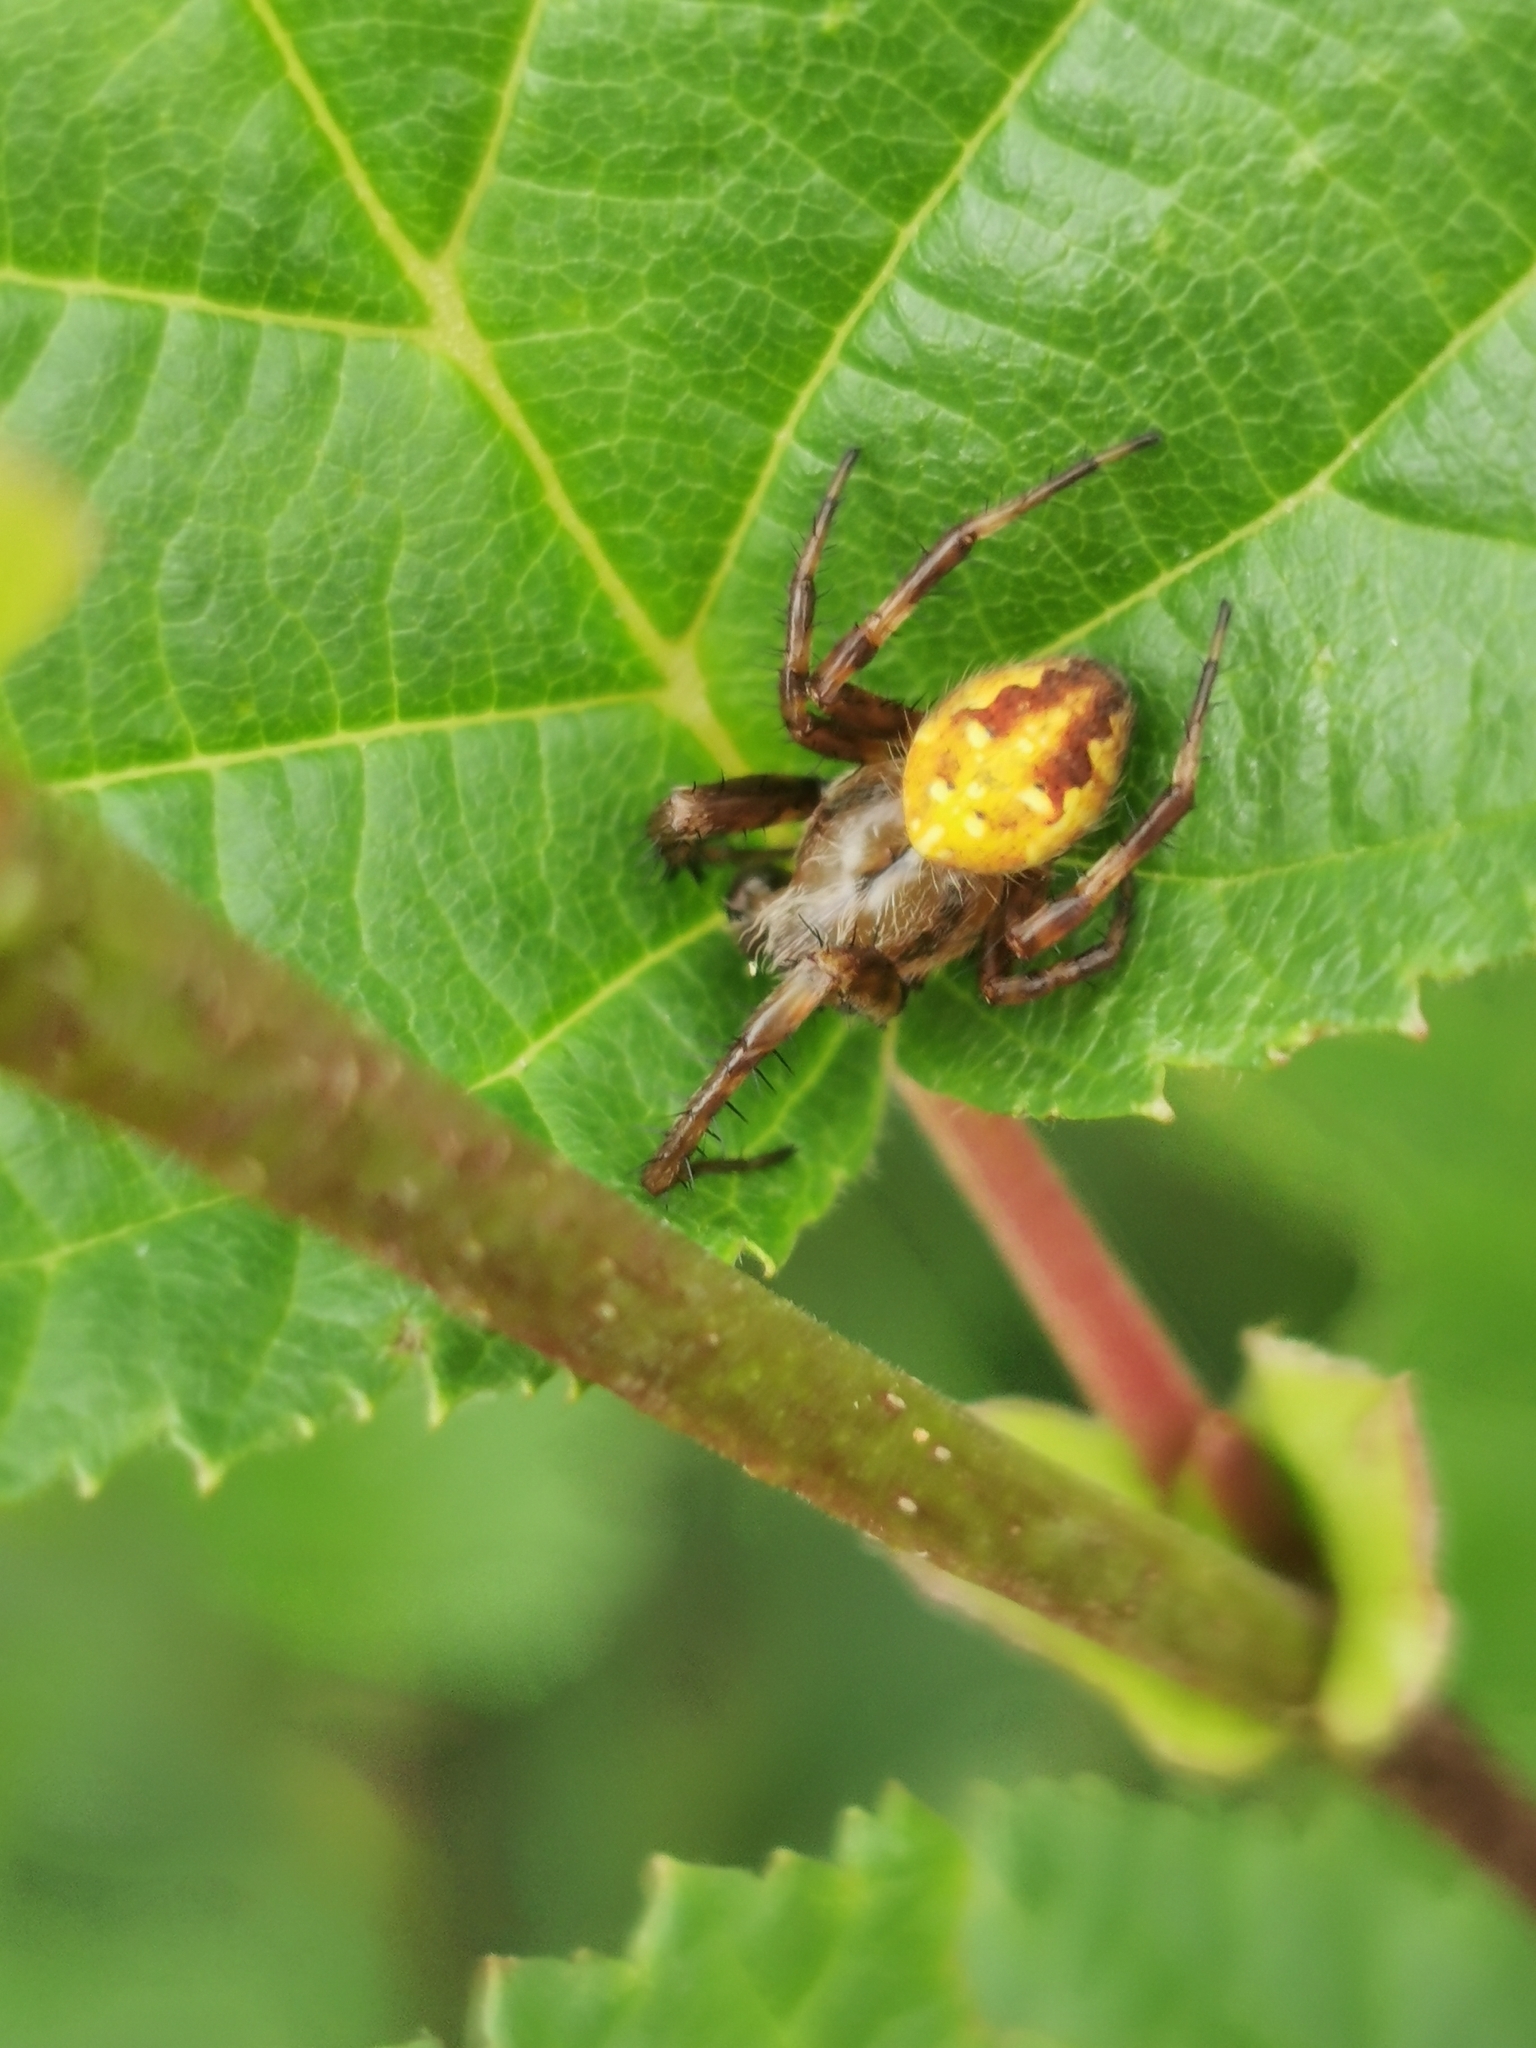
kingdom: Animalia
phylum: Arthropoda
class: Arachnida
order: Araneae
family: Araneidae
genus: Araneus
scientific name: Araneus quadratus
